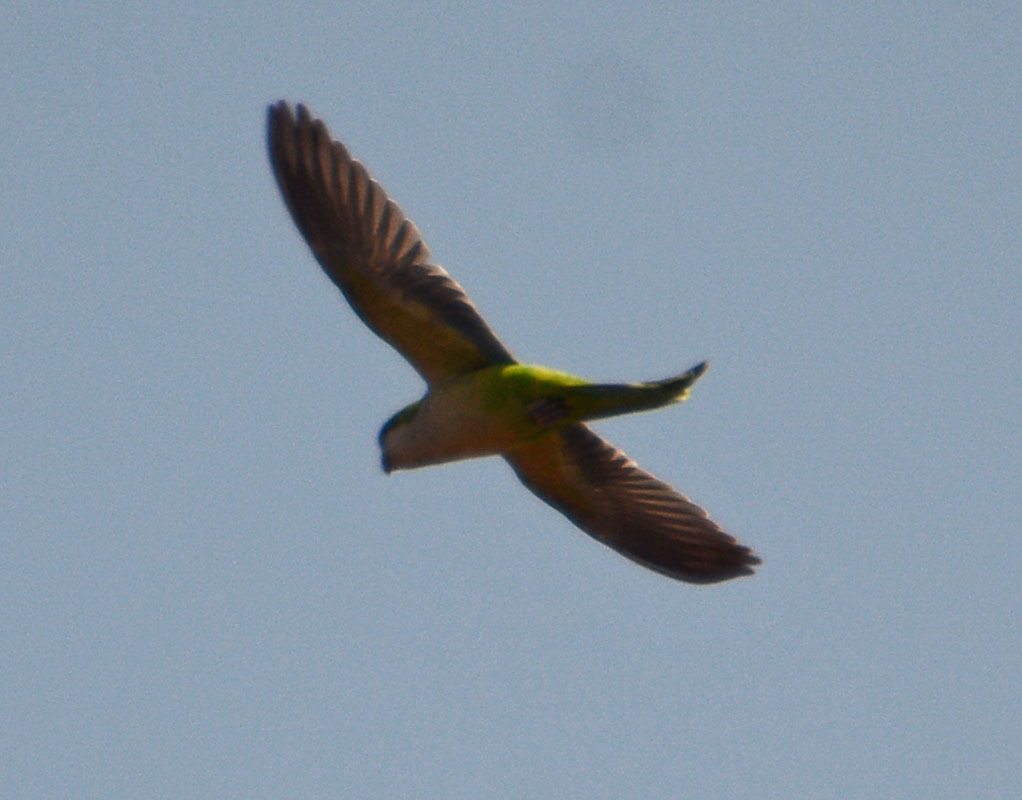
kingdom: Animalia
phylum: Chordata
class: Aves
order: Psittaciformes
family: Psittacidae
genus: Myiopsitta
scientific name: Myiopsitta monachus
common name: Monk parakeet
